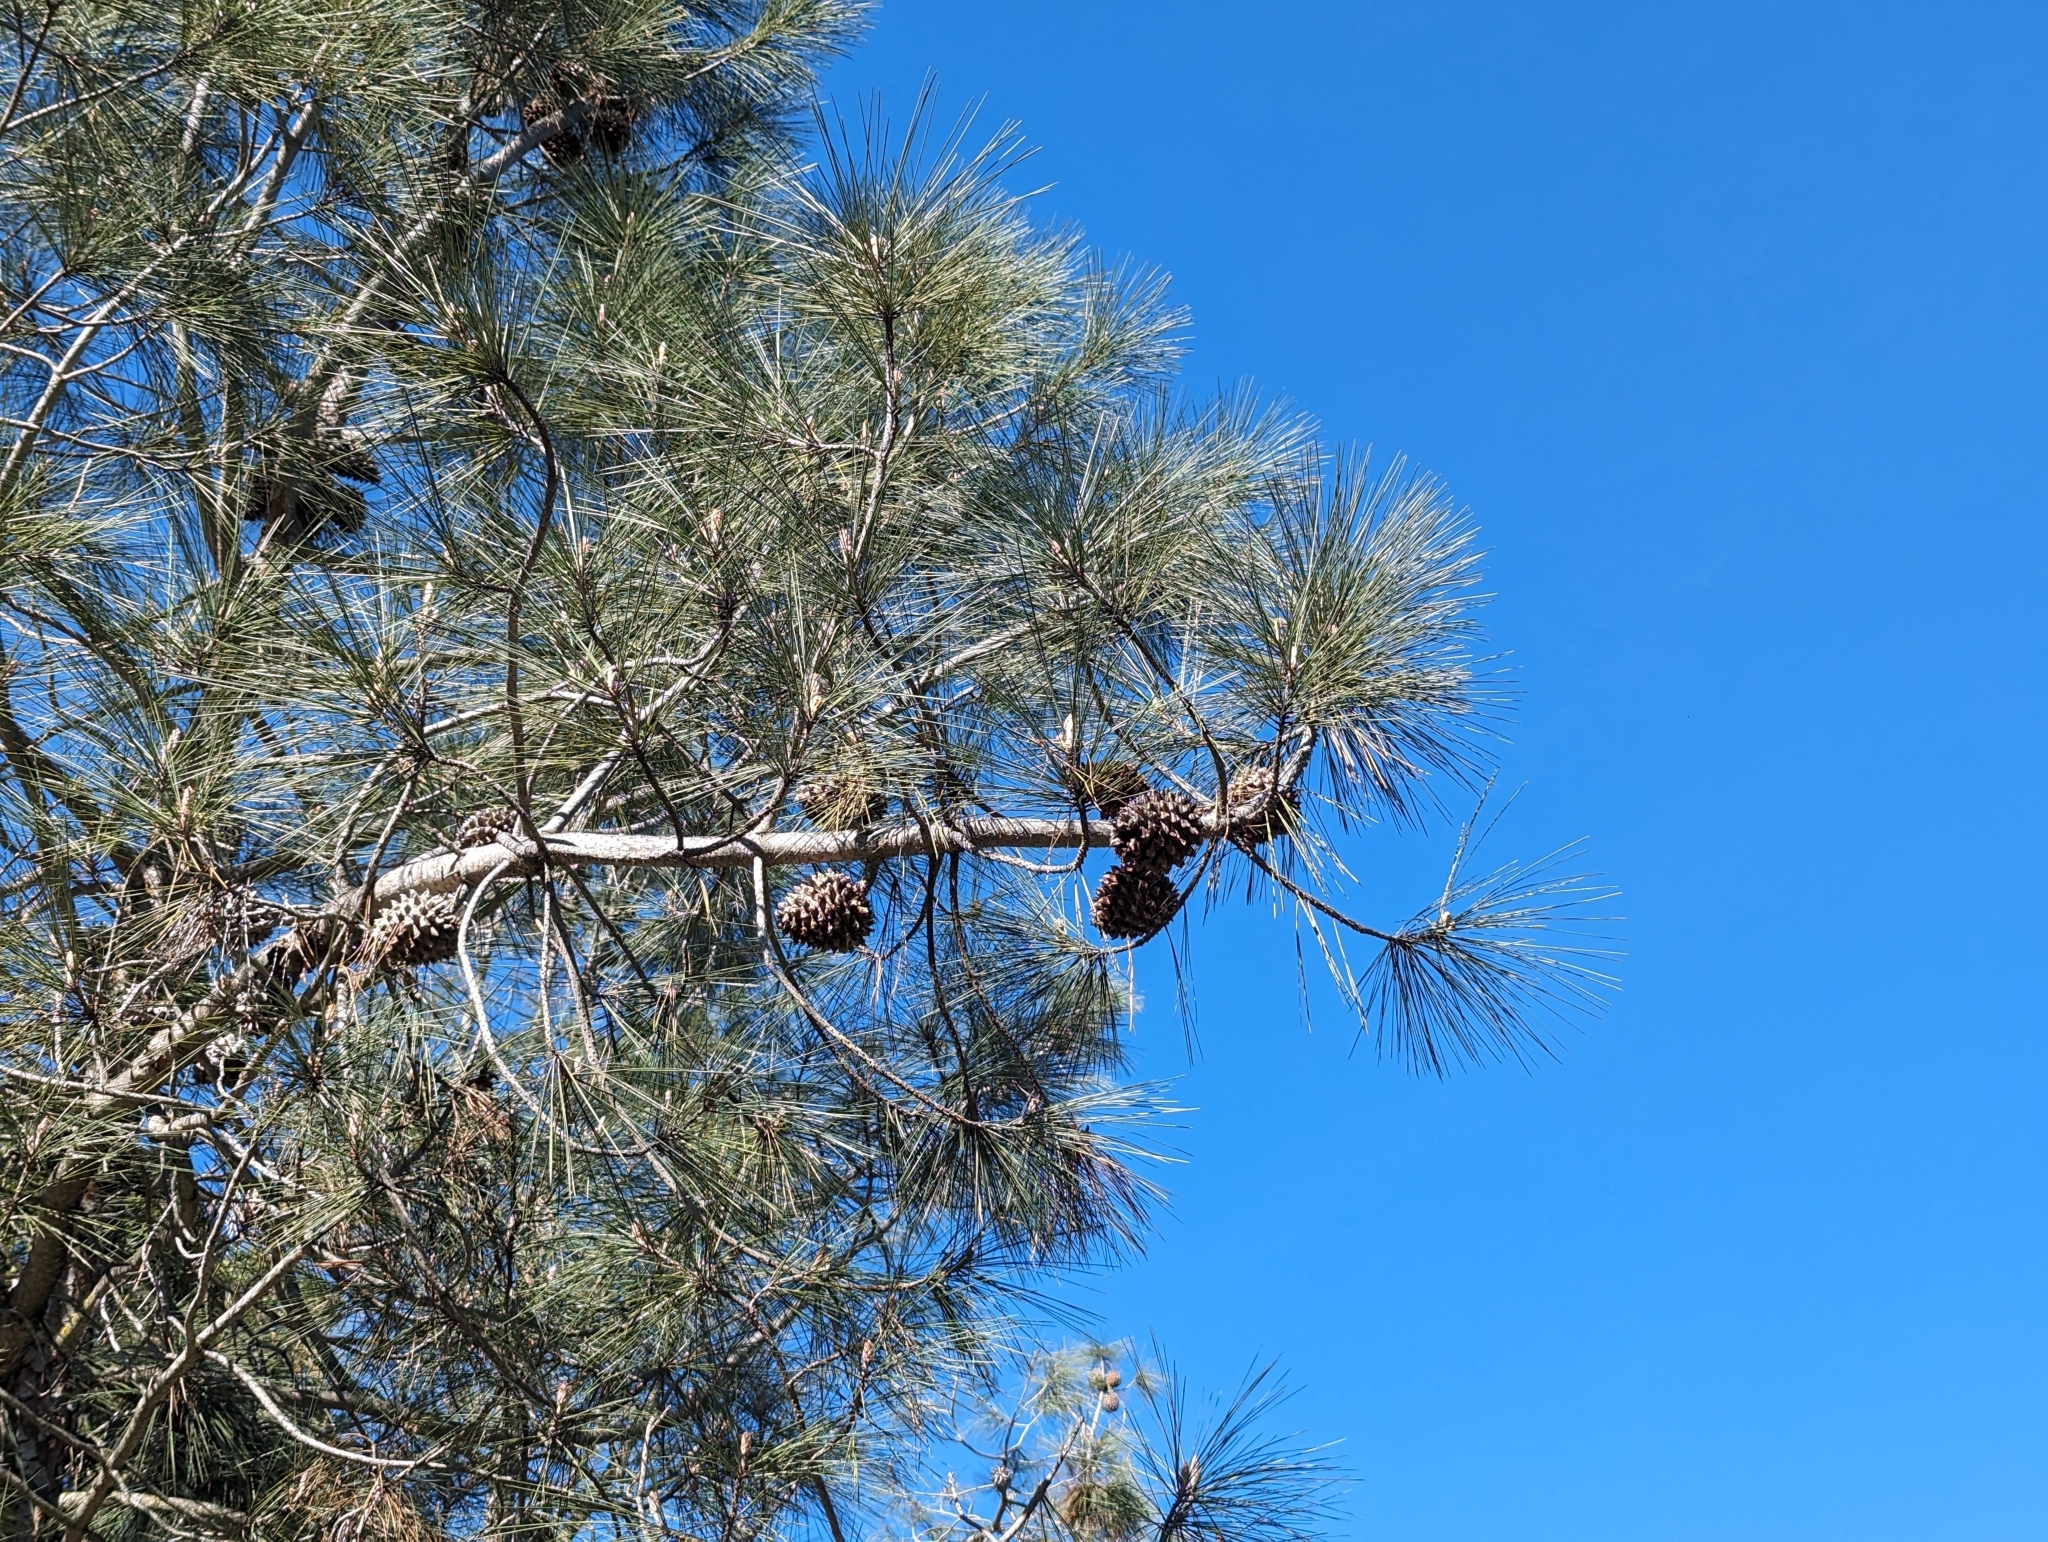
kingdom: Plantae
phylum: Tracheophyta
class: Pinopsida
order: Pinales
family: Pinaceae
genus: Pinus
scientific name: Pinus sabiniana
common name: Bull pine
